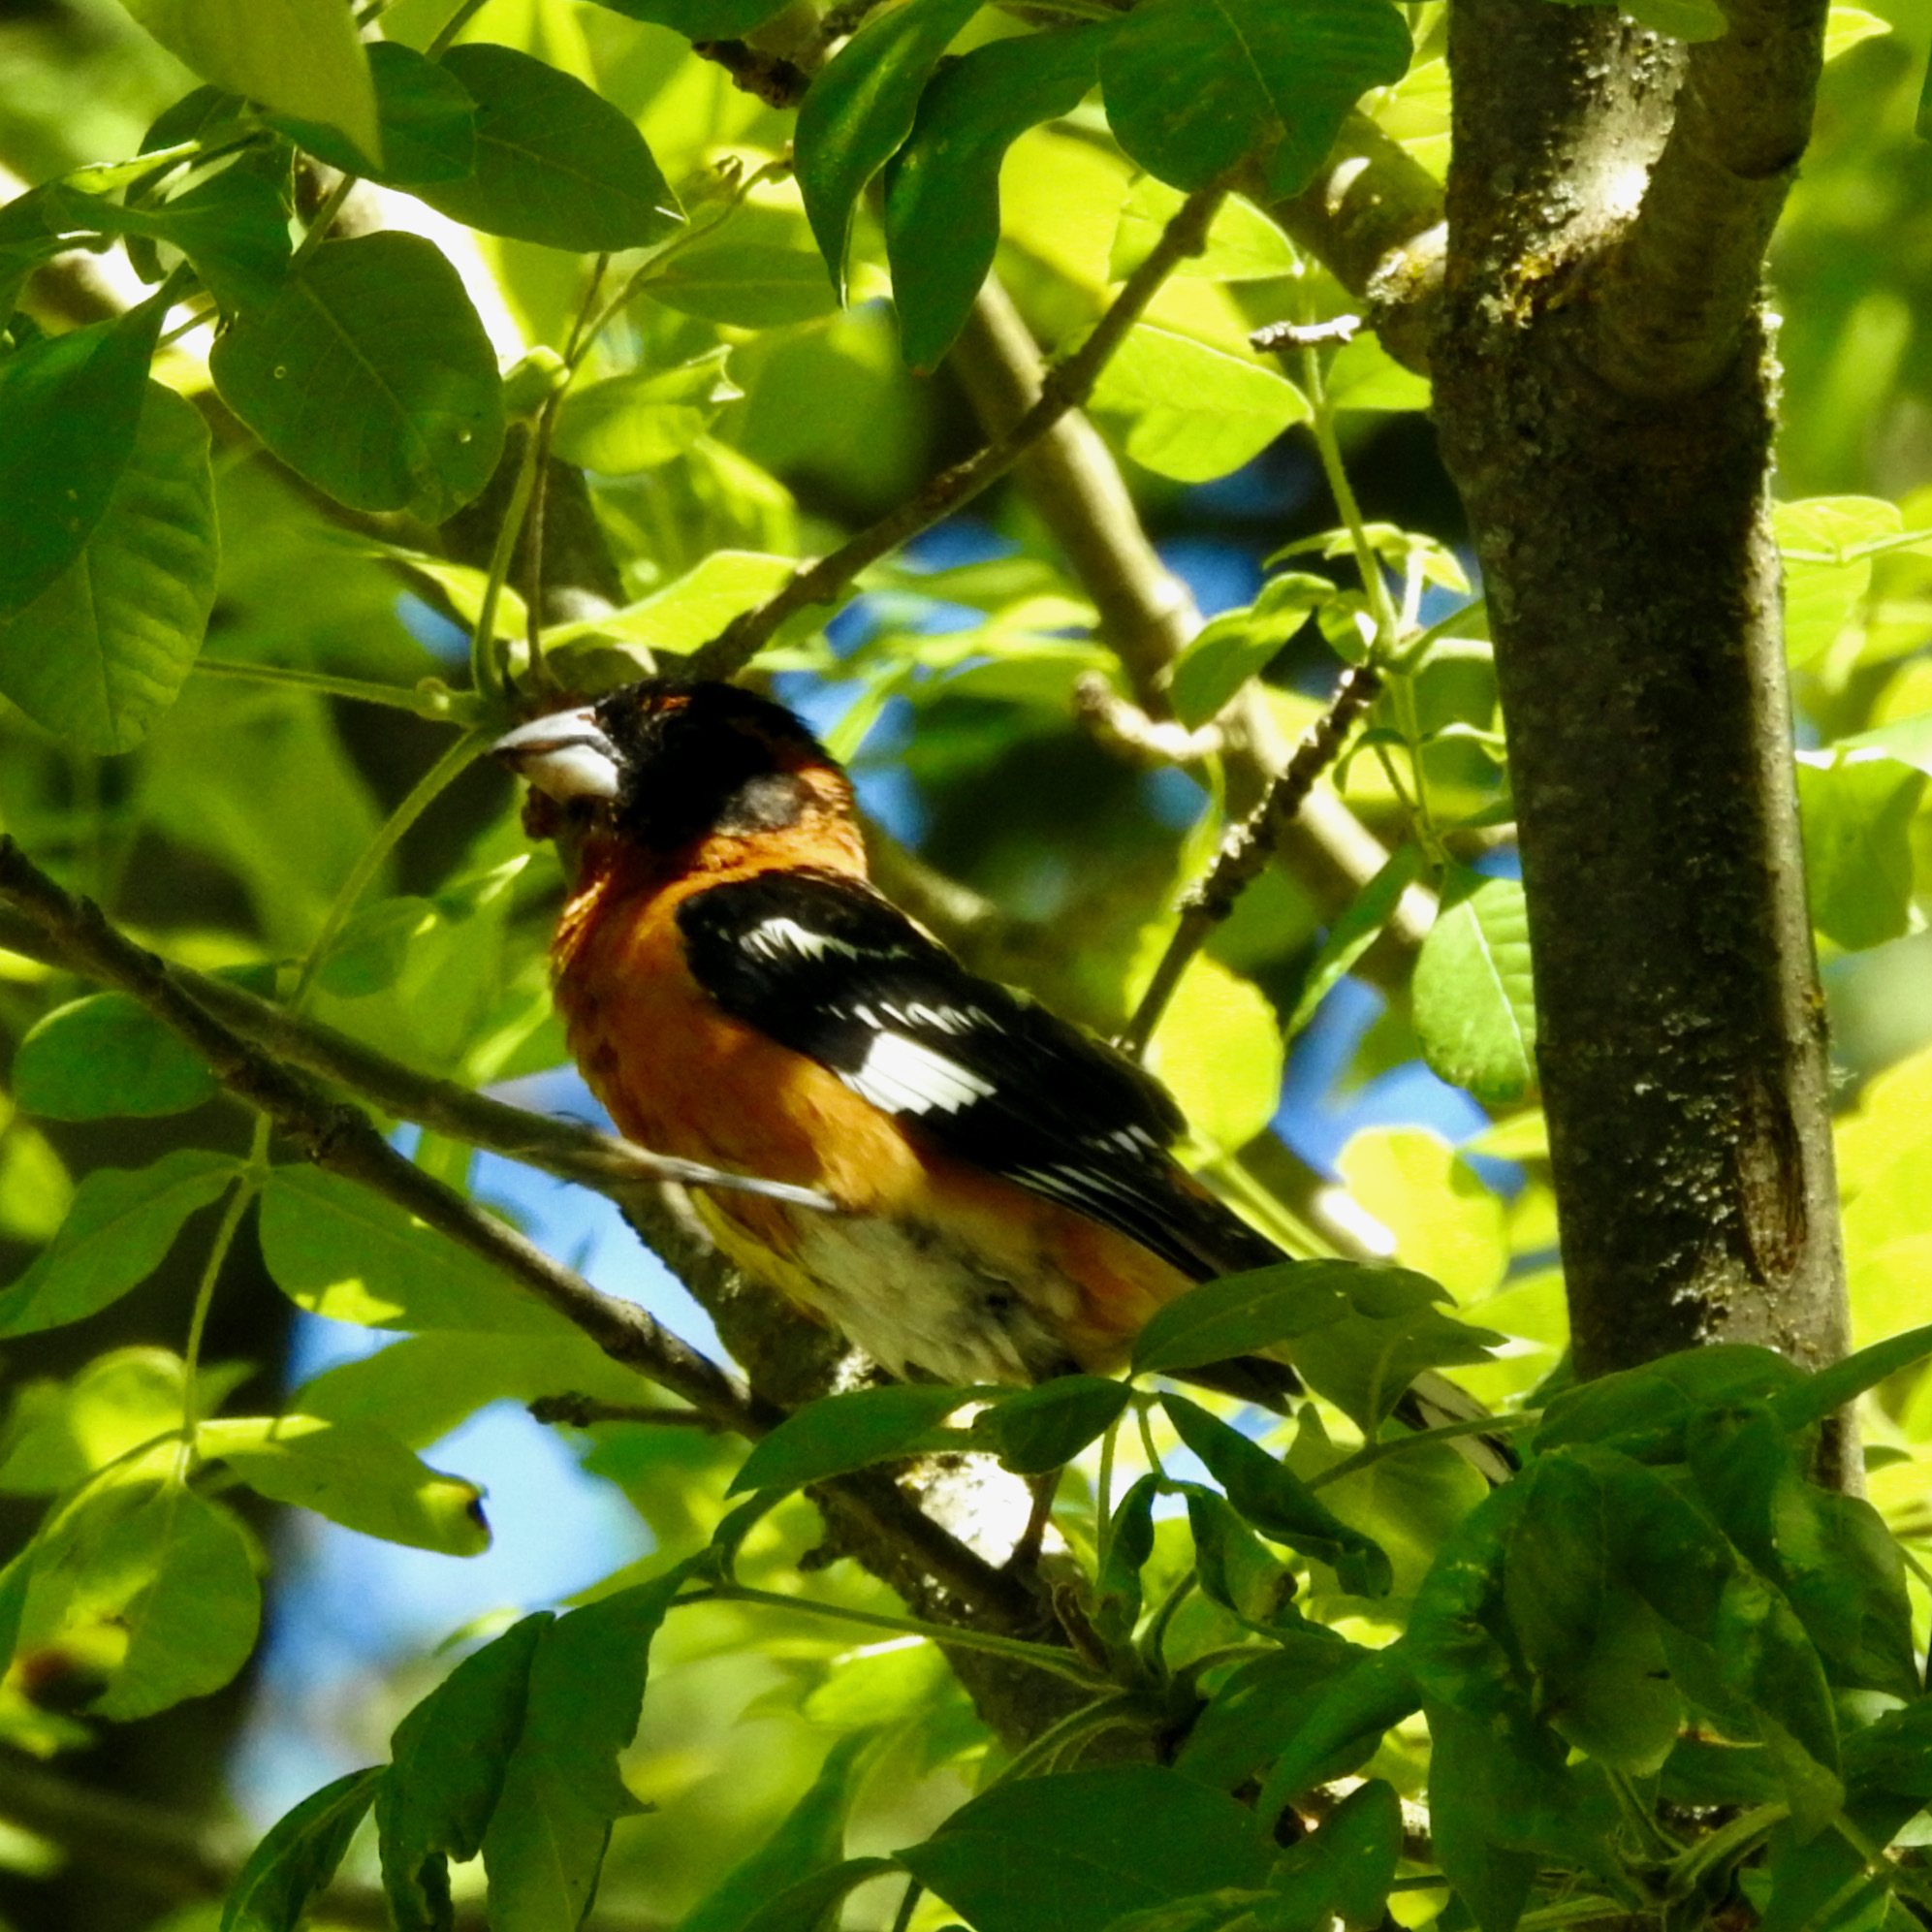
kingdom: Animalia
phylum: Chordata
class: Aves
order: Passeriformes
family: Cardinalidae
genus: Pheucticus
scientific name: Pheucticus melanocephalus
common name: Black-headed grosbeak
